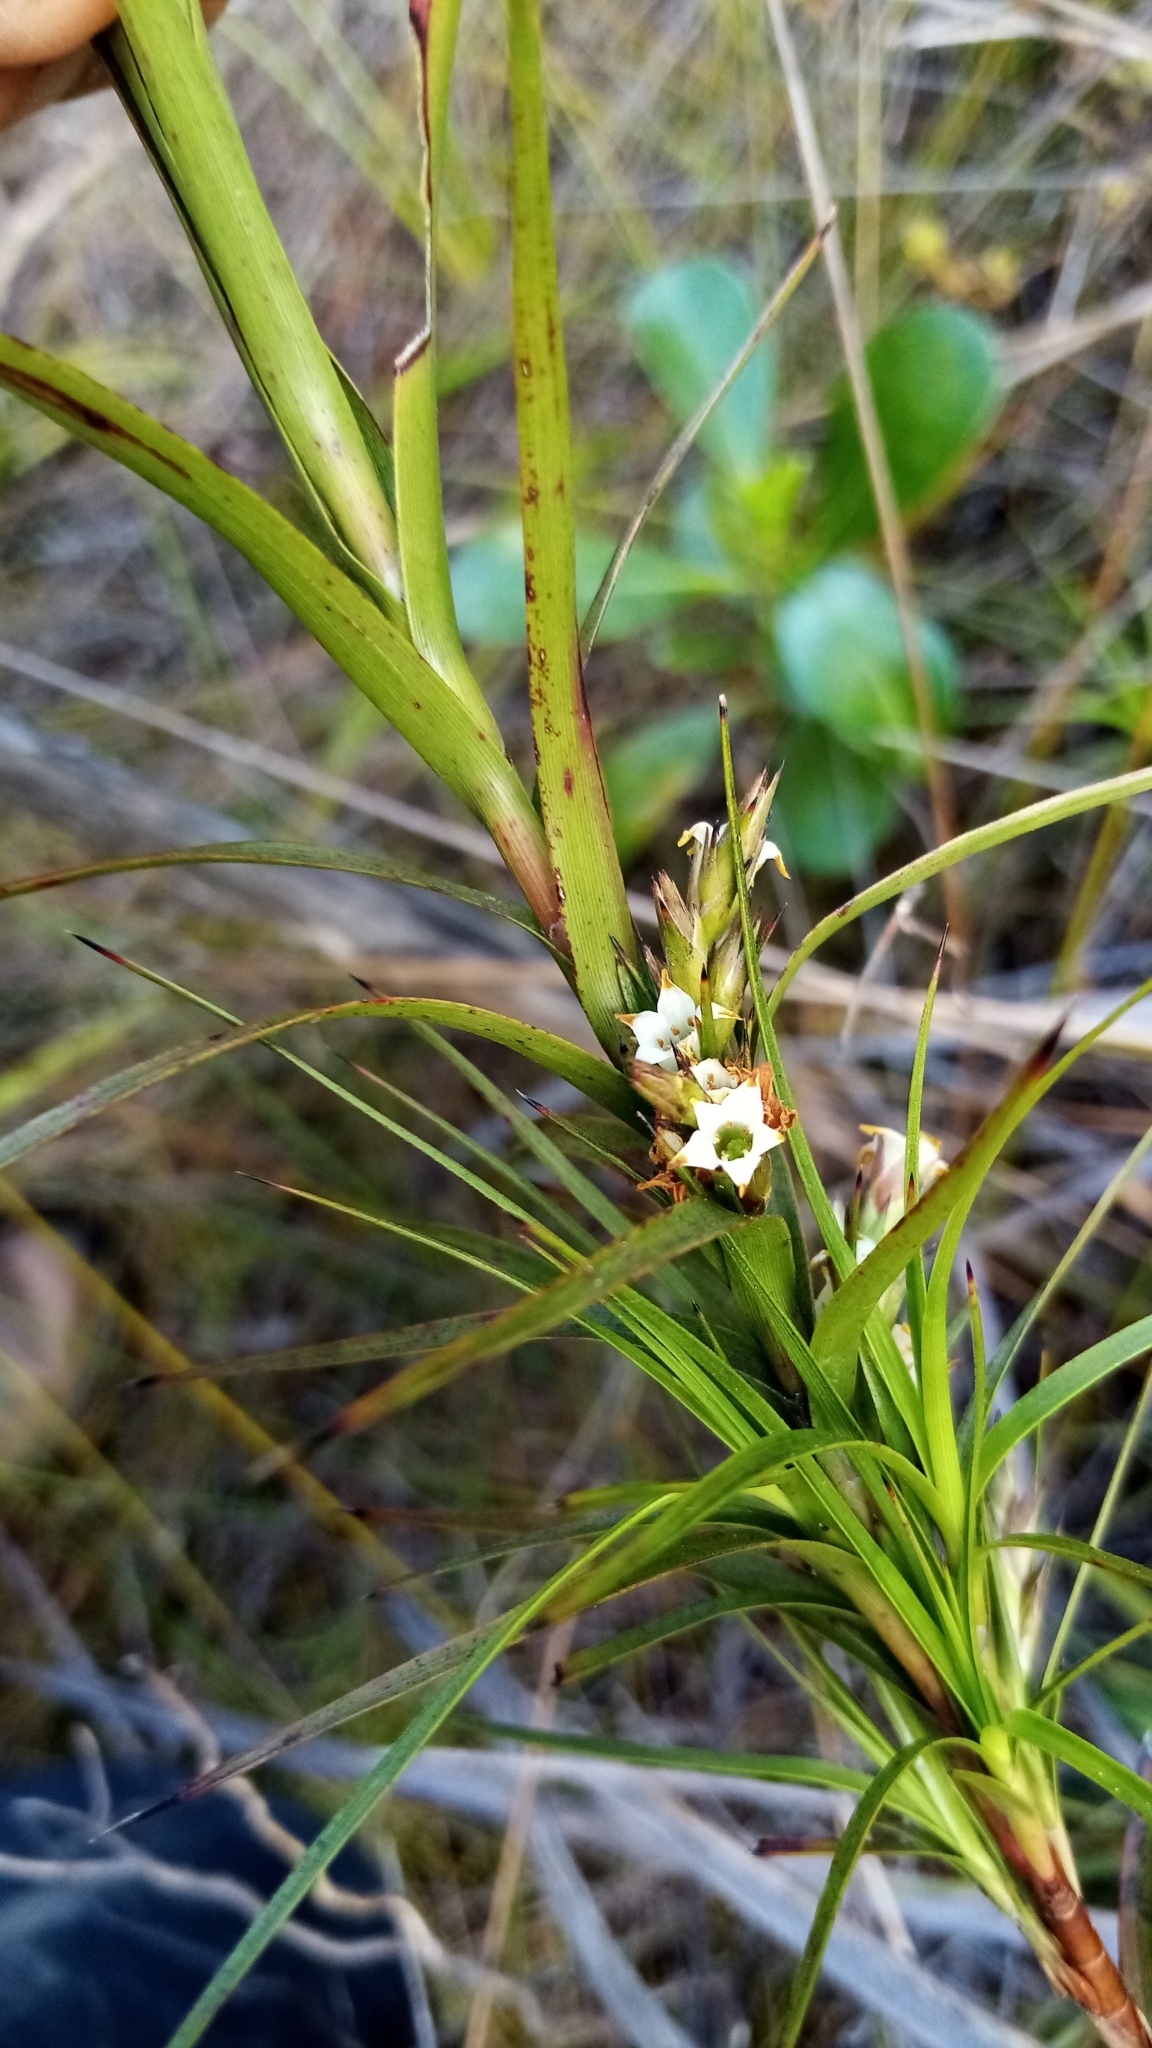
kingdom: Plantae
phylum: Tracheophyta
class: Magnoliopsida
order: Ericales
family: Ericaceae
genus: Dracophyllum
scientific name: Dracophyllum sinclairii
